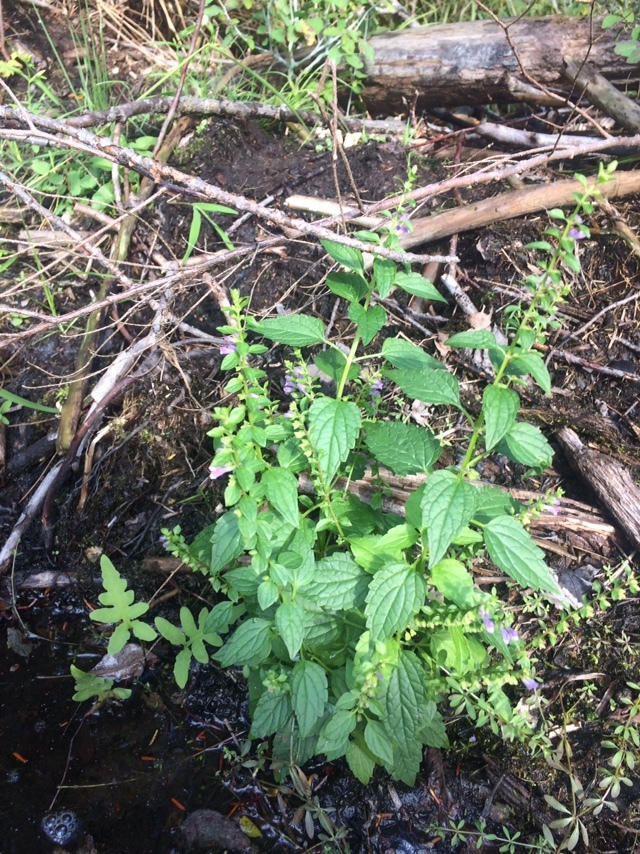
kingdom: Plantae
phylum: Tracheophyta
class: Magnoliopsida
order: Lamiales
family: Lamiaceae
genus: Scutellaria
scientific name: Scutellaria lateriflora
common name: Blue skullcap
